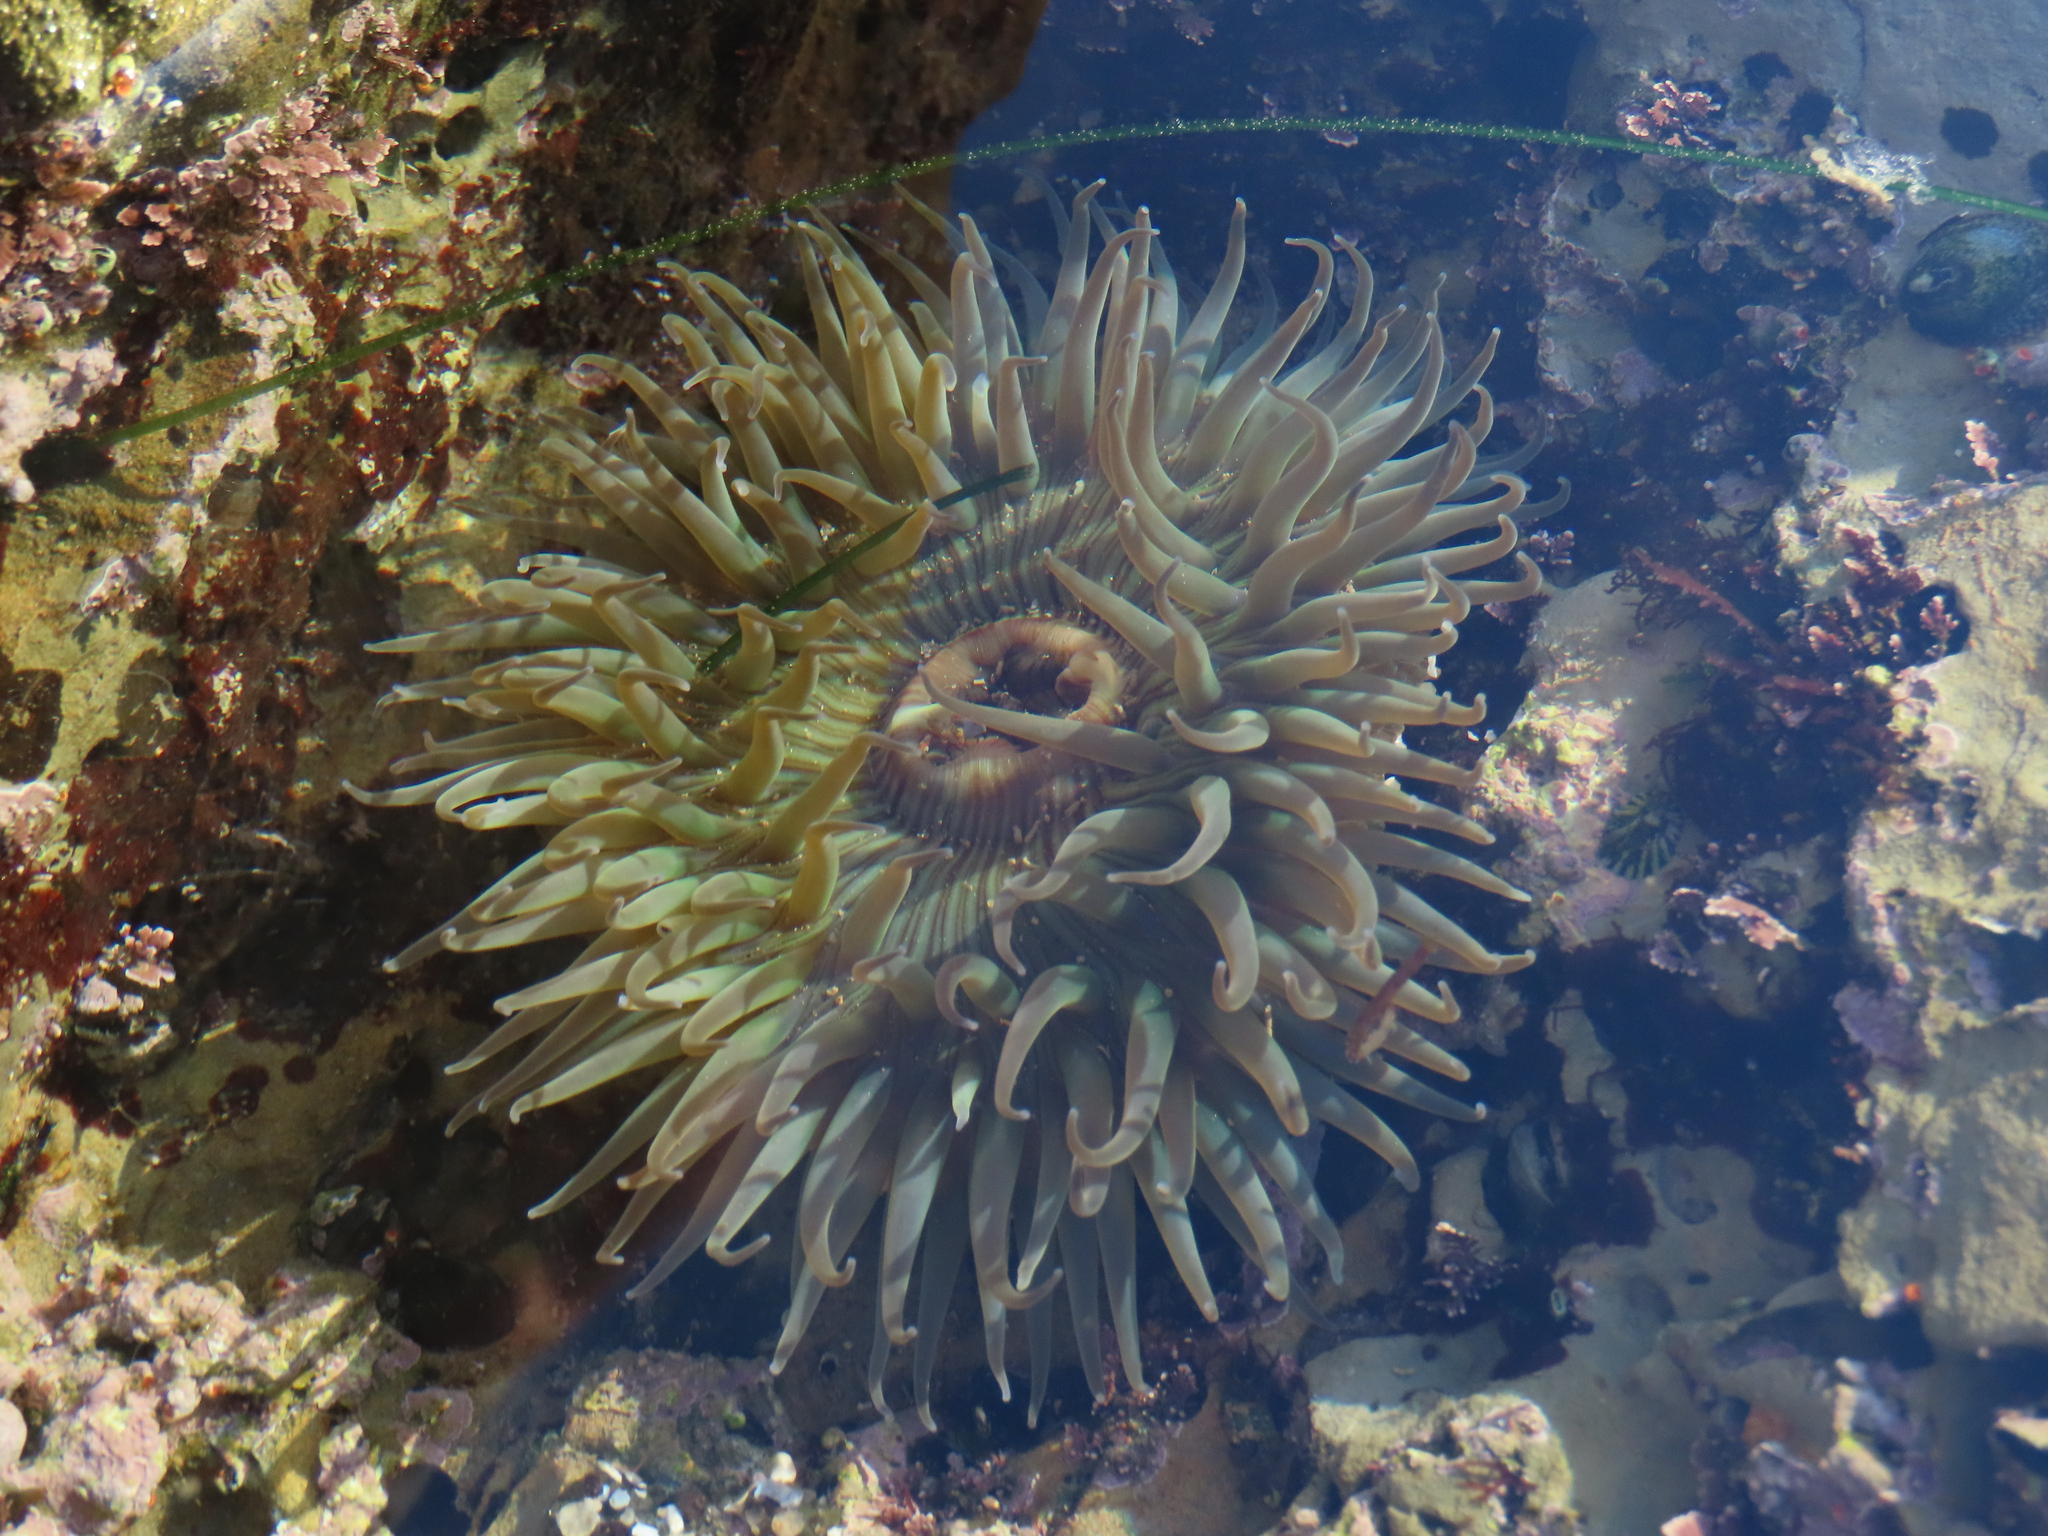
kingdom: Animalia
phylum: Cnidaria
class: Anthozoa
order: Actiniaria
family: Actiniidae
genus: Anthopleura
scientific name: Anthopleura sola
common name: Sun anemone
